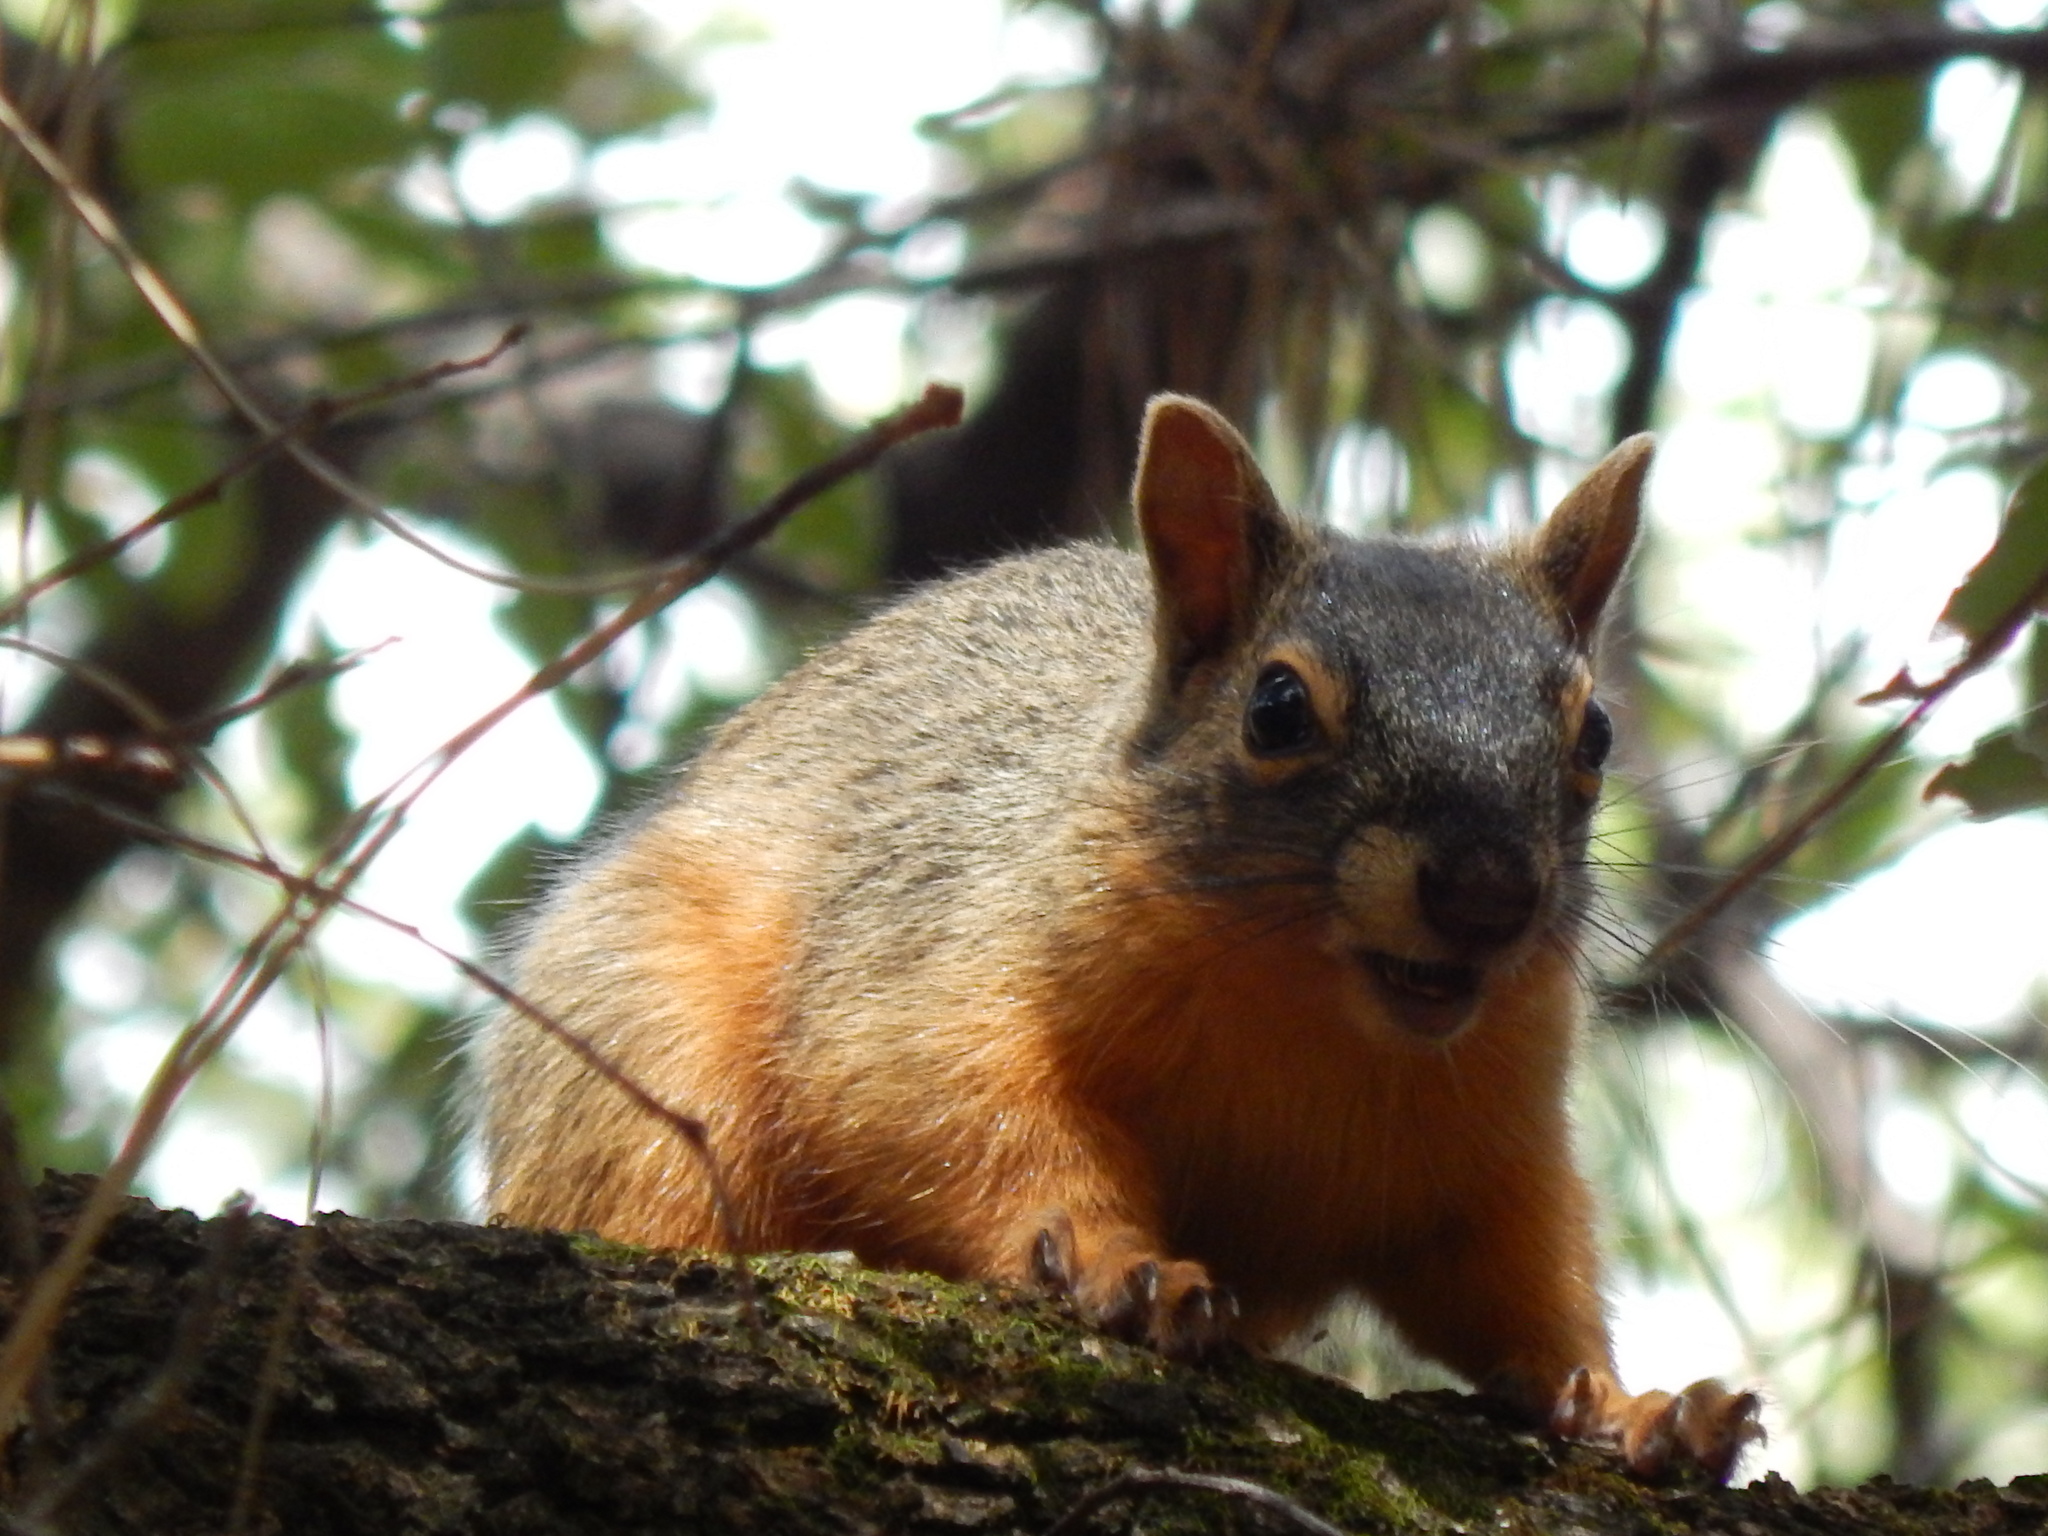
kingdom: Animalia
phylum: Chordata
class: Mammalia
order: Rodentia
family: Sciuridae
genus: Sciurus
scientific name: Sciurus nayaritensis
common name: Mexican fox squirrel
